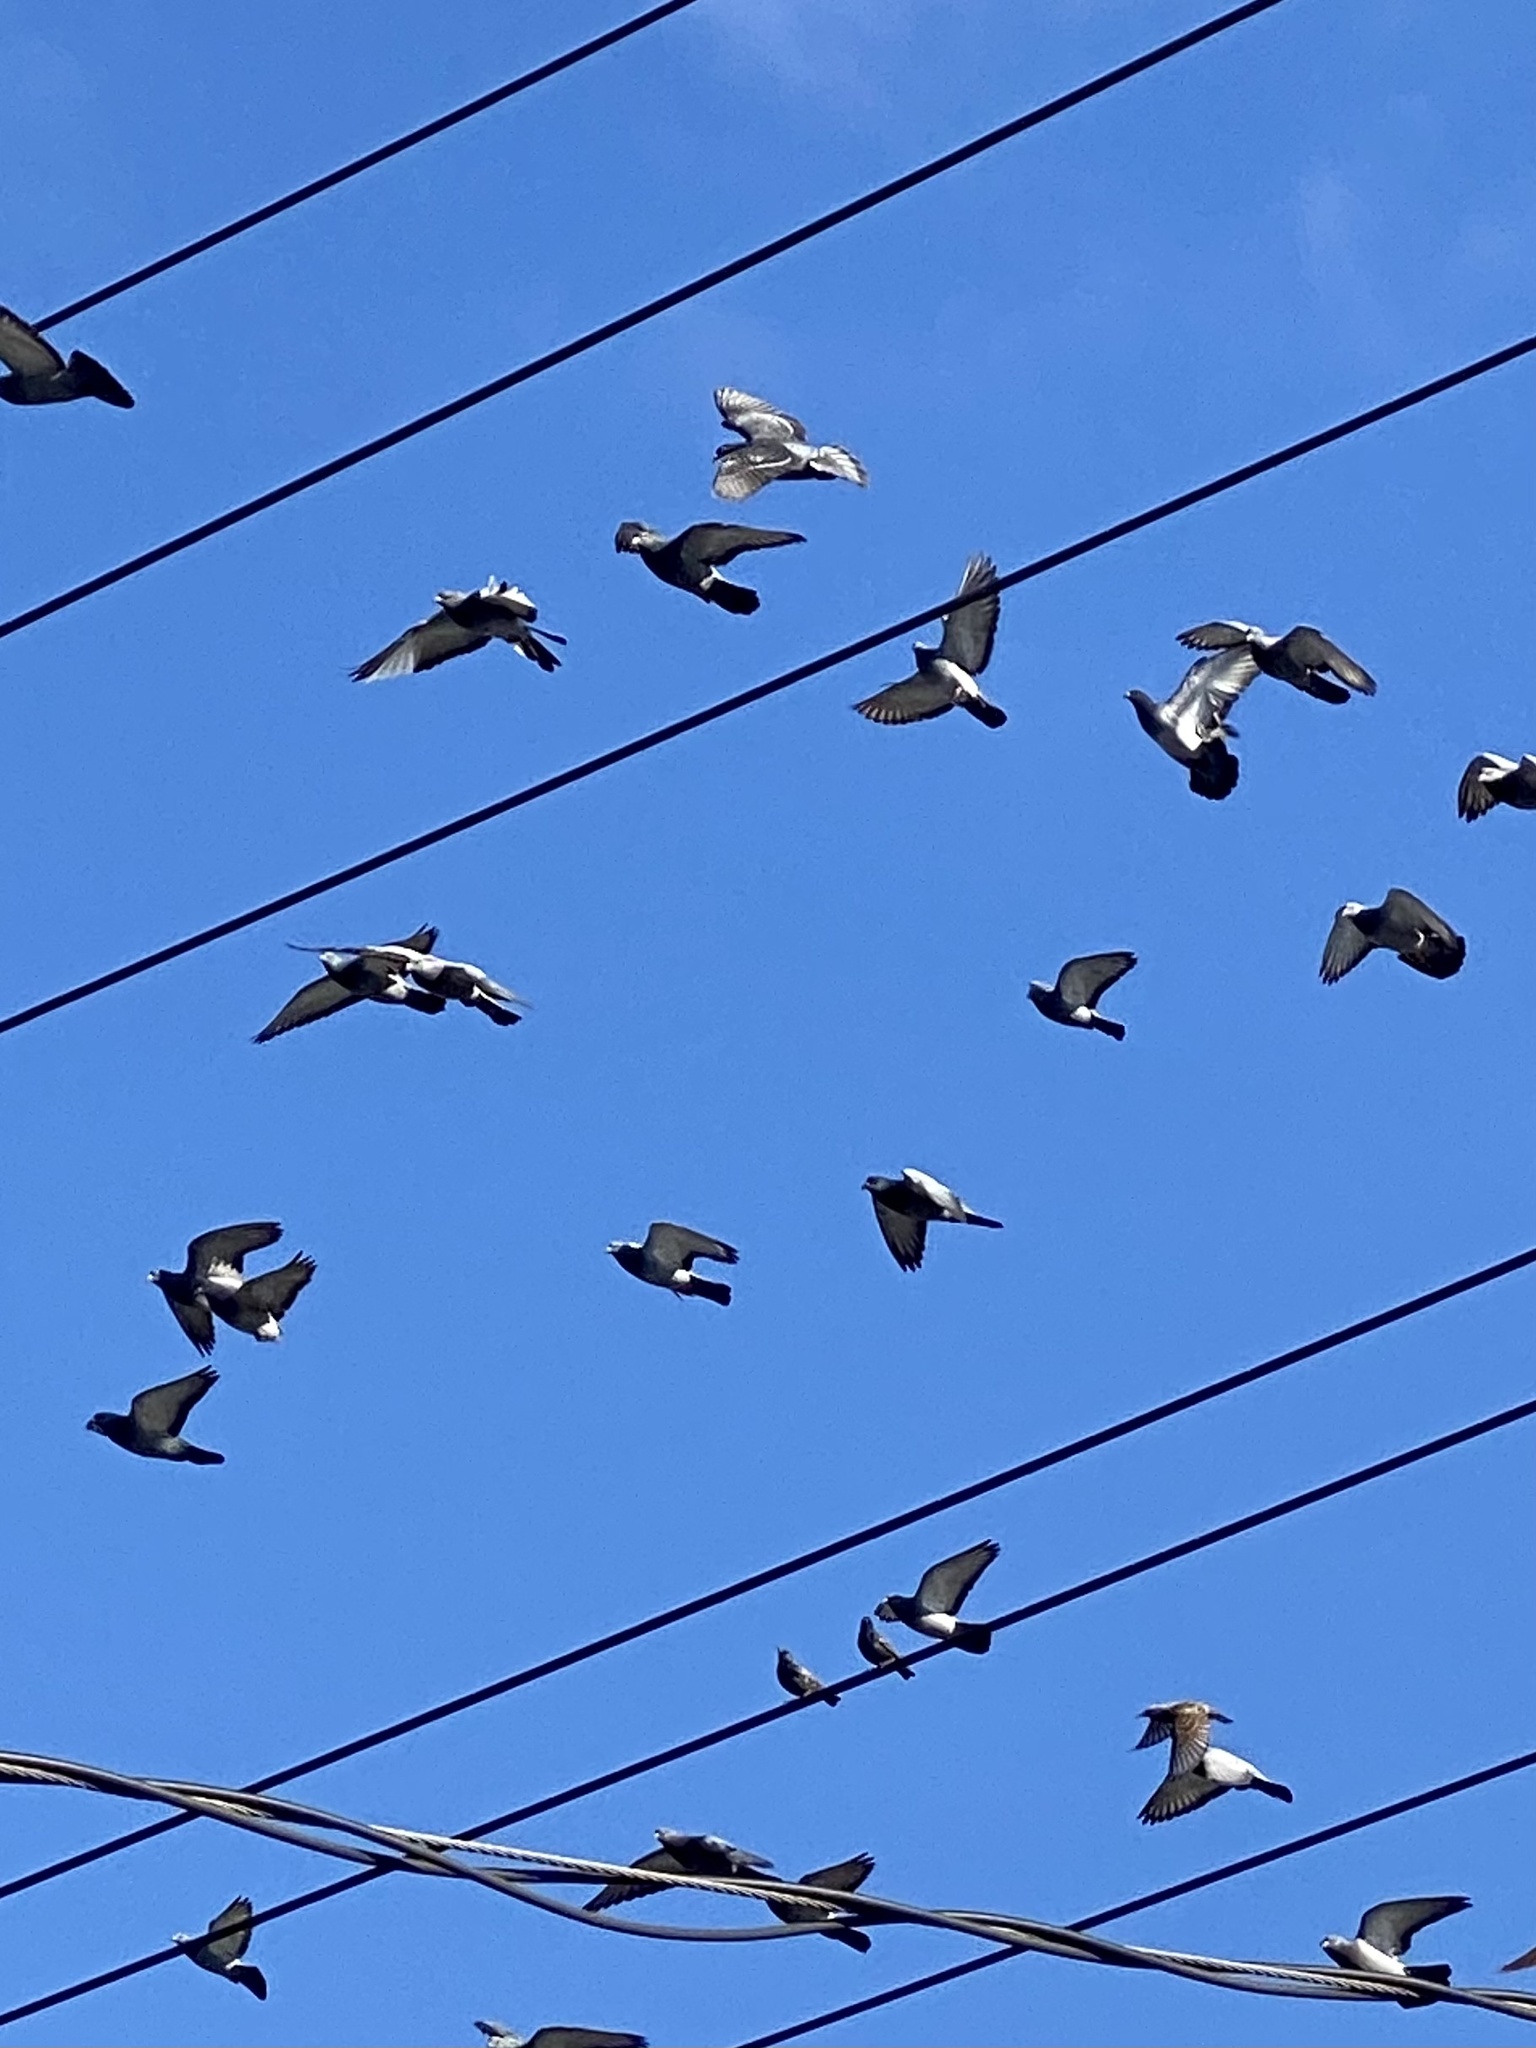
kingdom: Animalia
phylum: Chordata
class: Aves
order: Columbiformes
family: Columbidae
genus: Columba
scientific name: Columba livia
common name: Rock pigeon
